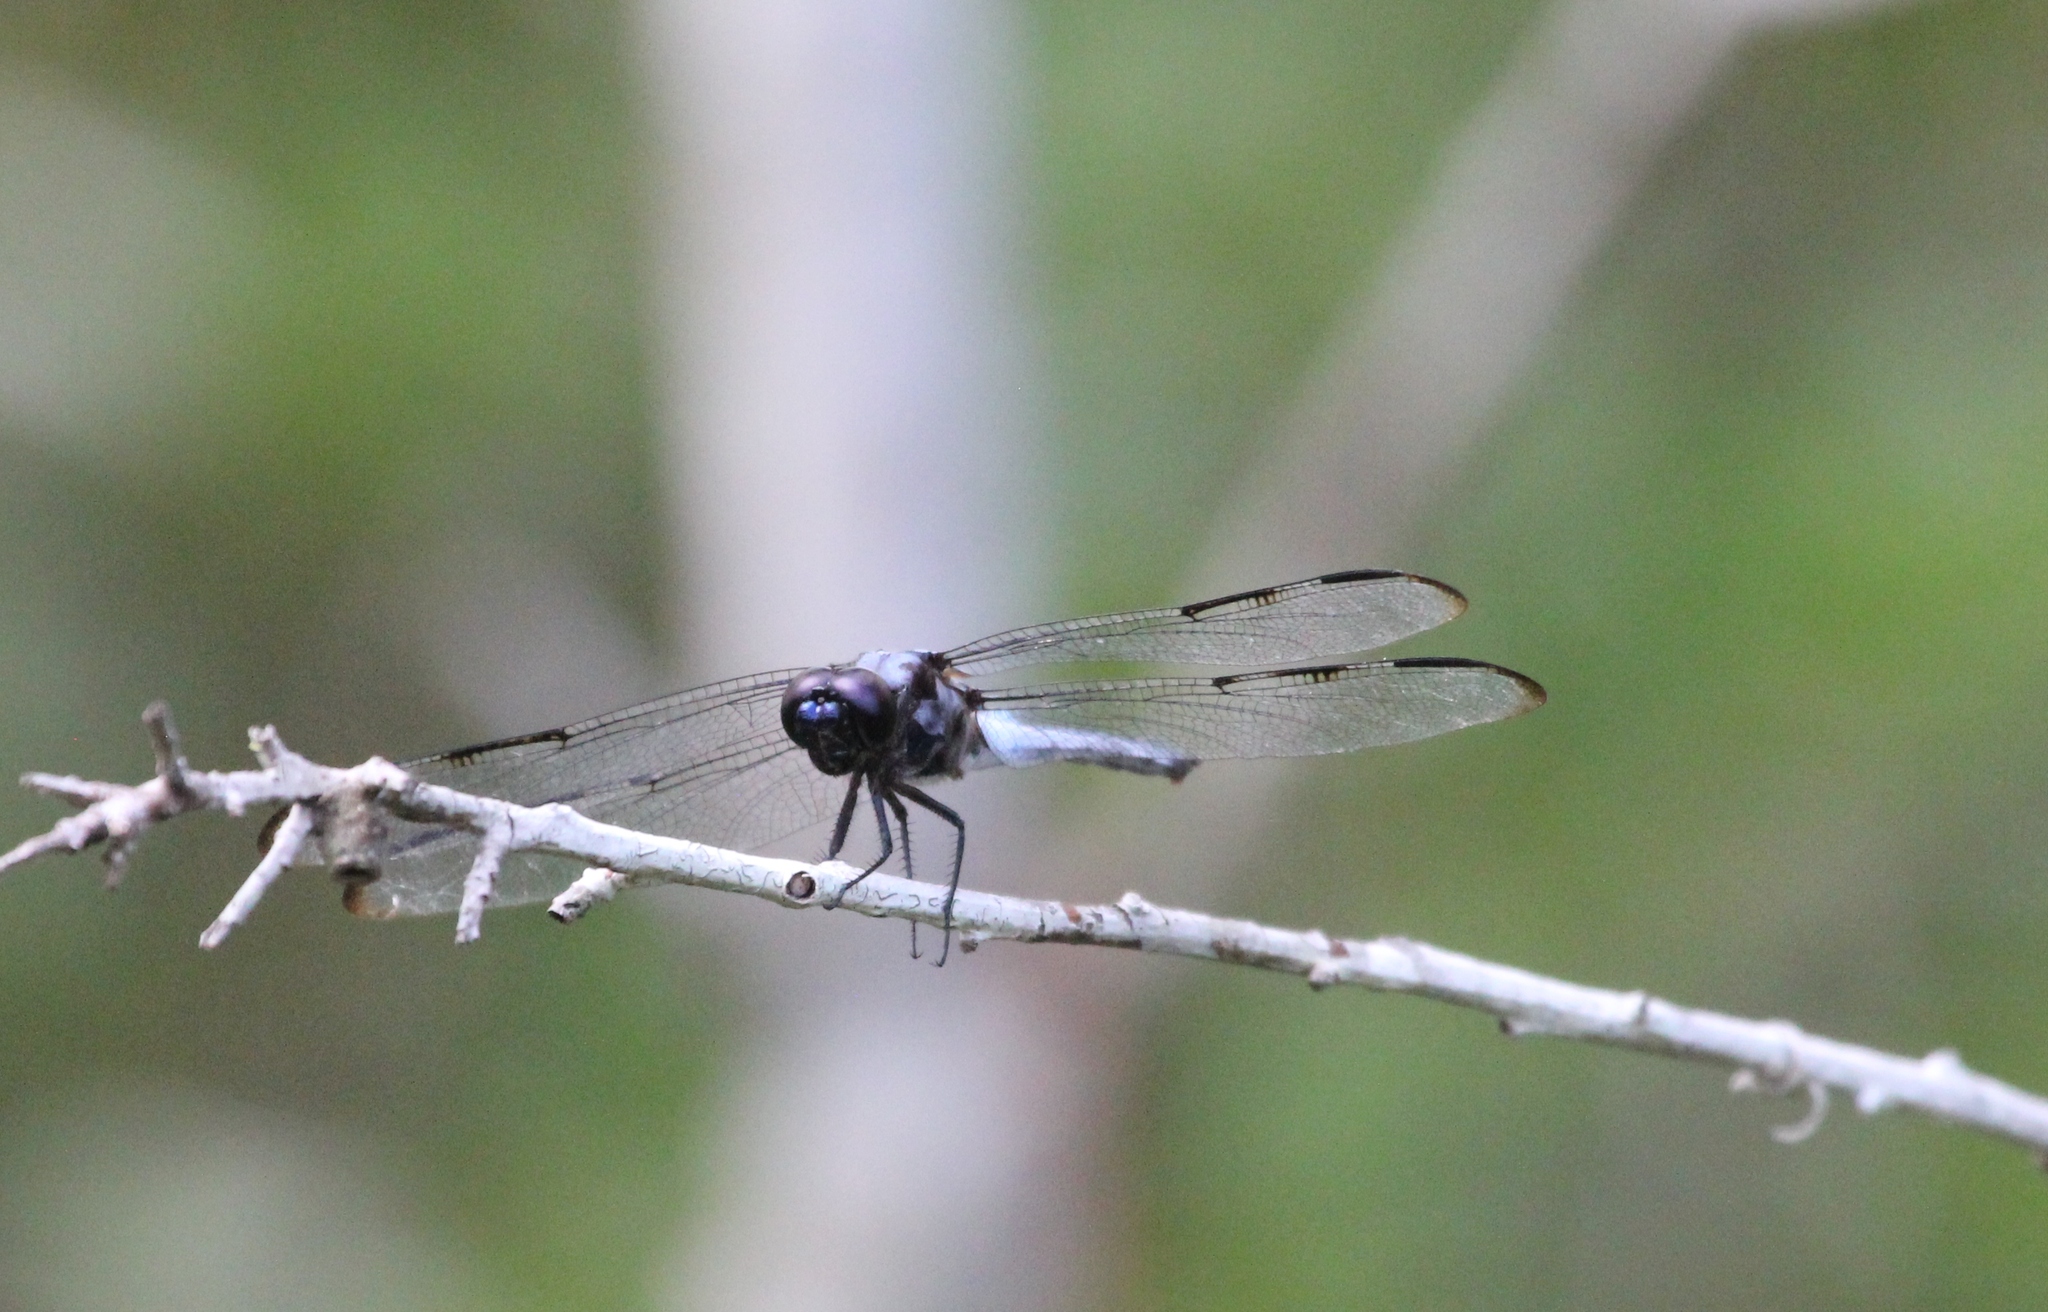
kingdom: Animalia
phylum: Arthropoda
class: Insecta
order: Odonata
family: Libellulidae
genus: Libellula
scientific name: Libellula axilena
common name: Bar-winged skimmer
